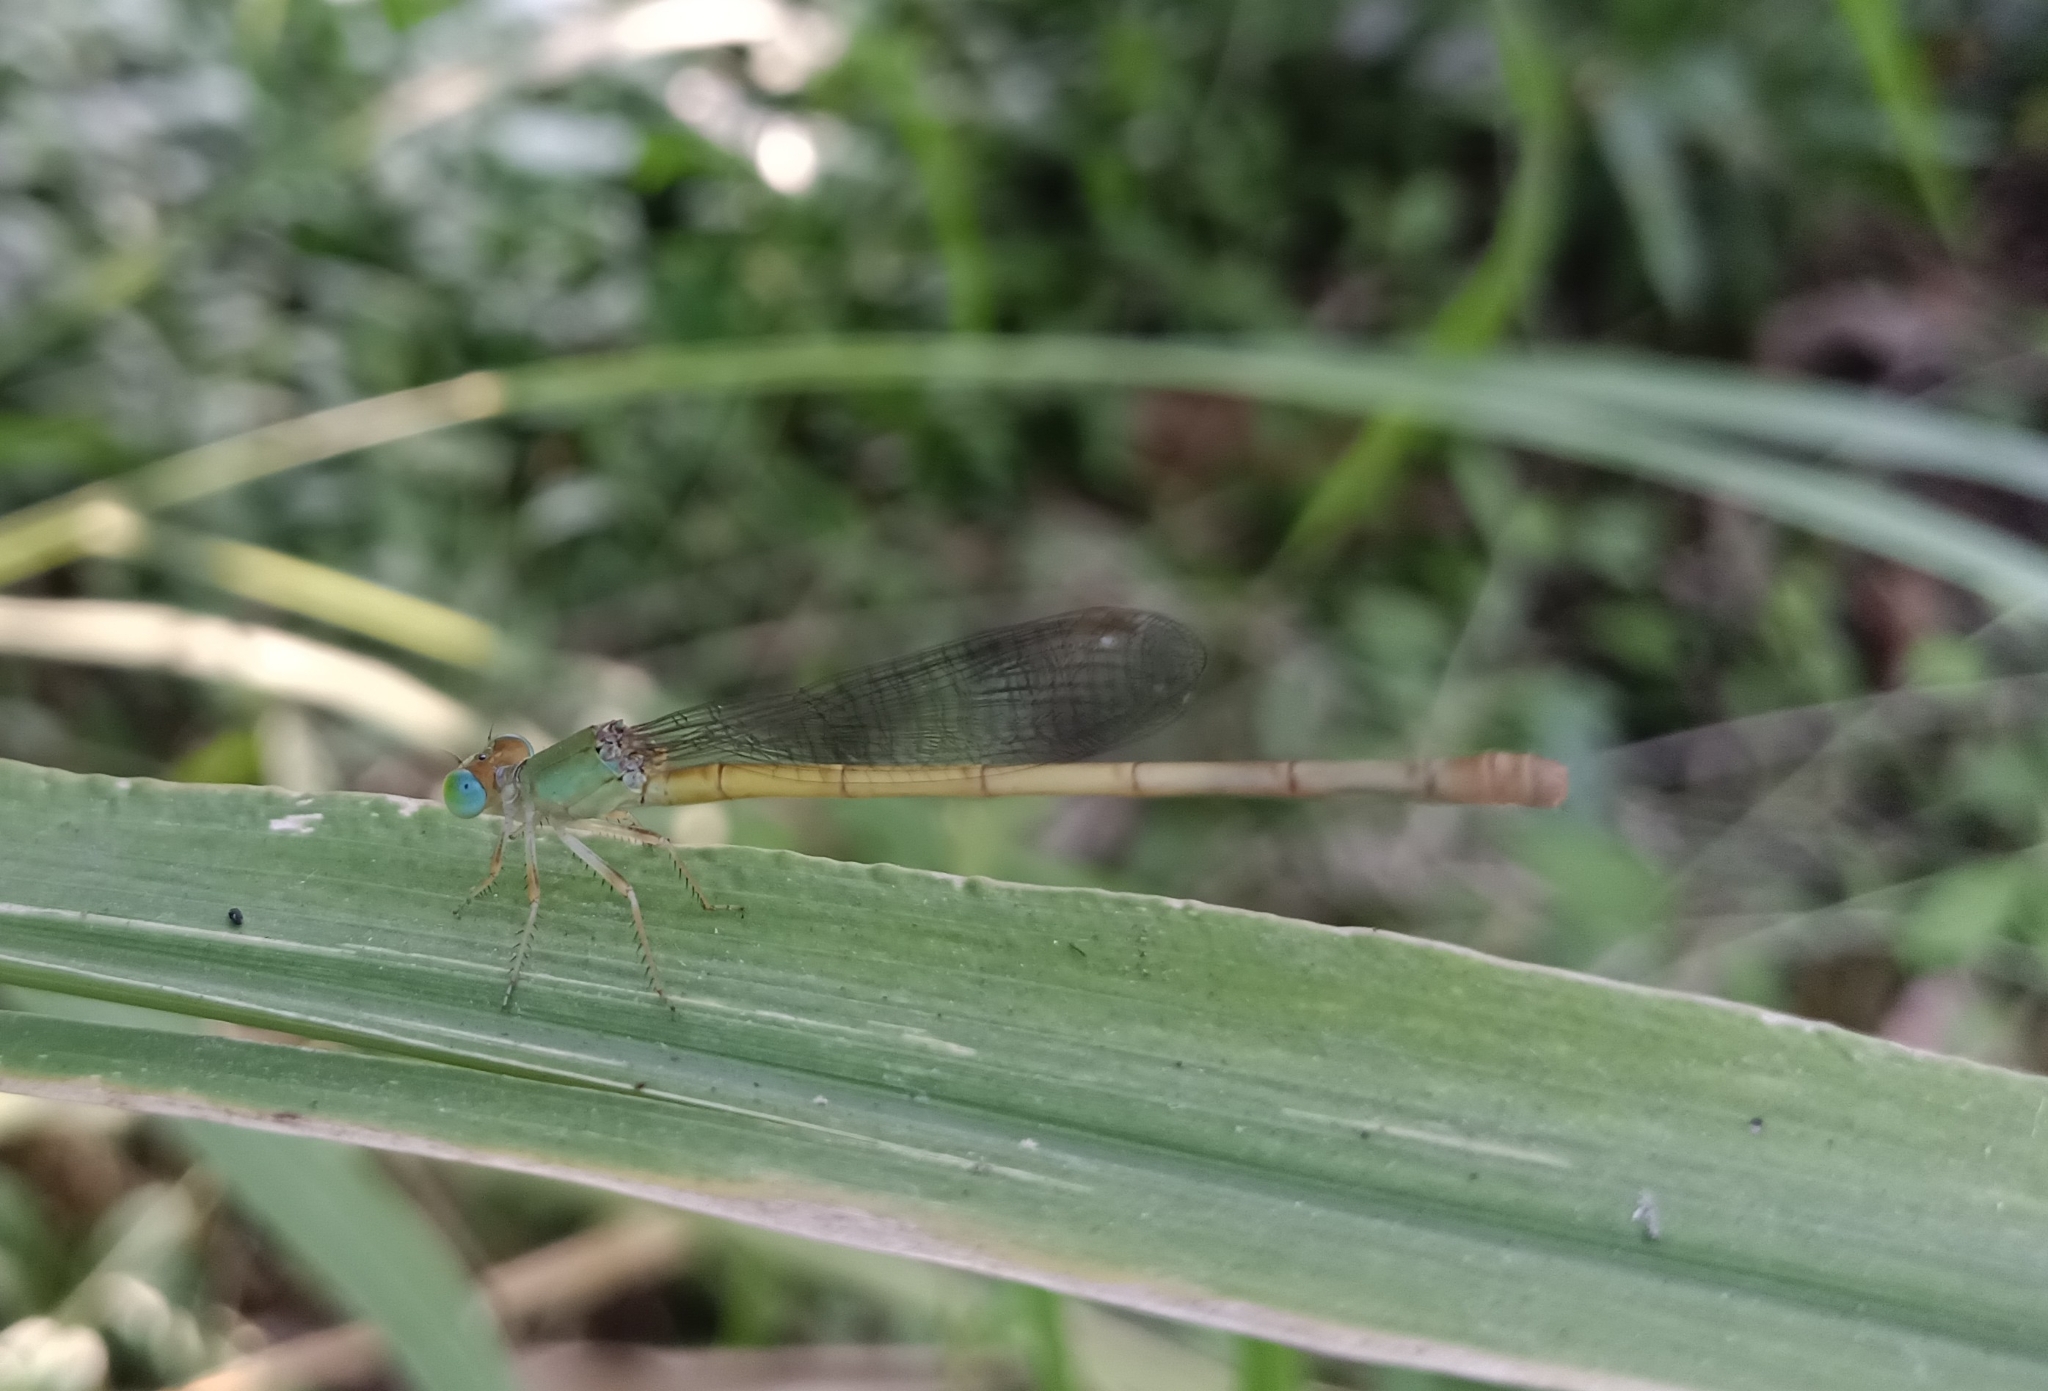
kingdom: Animalia
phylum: Arthropoda
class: Insecta
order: Odonata
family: Coenagrionidae
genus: Ceriagrion
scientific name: Ceriagrion coromandelianum
